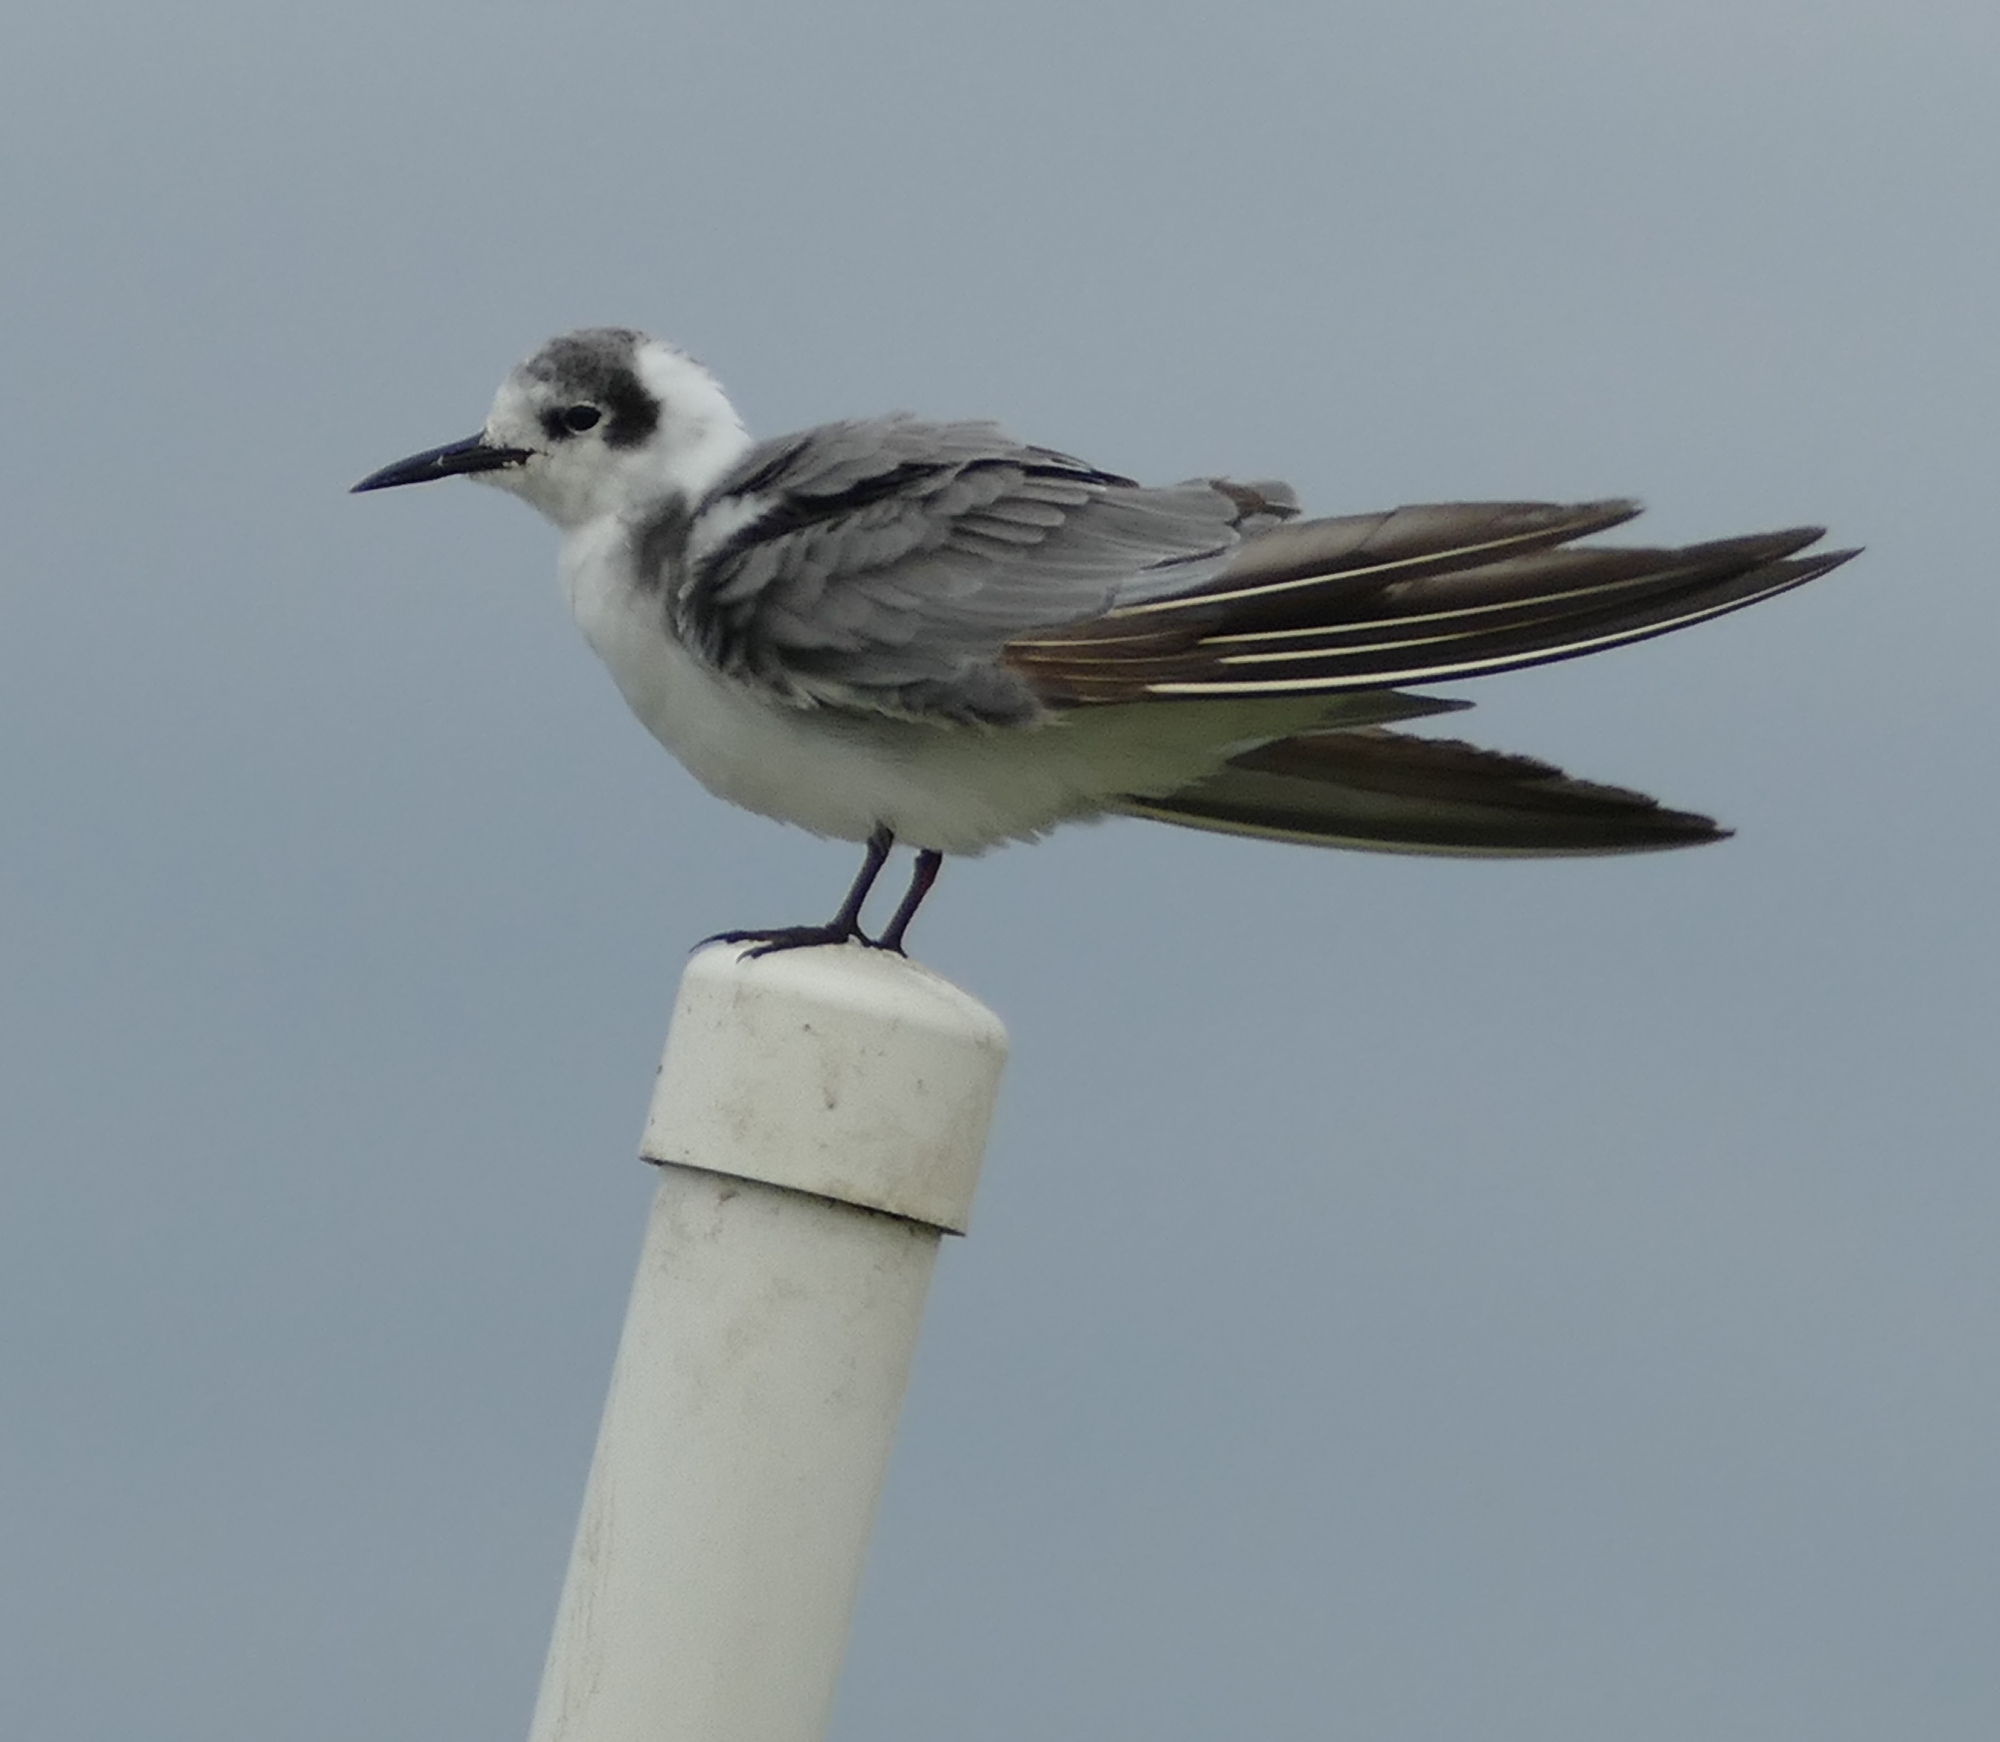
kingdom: Animalia
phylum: Chordata
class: Aves
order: Charadriiformes
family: Laridae
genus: Chlidonias
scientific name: Chlidonias niger
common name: Black tern
